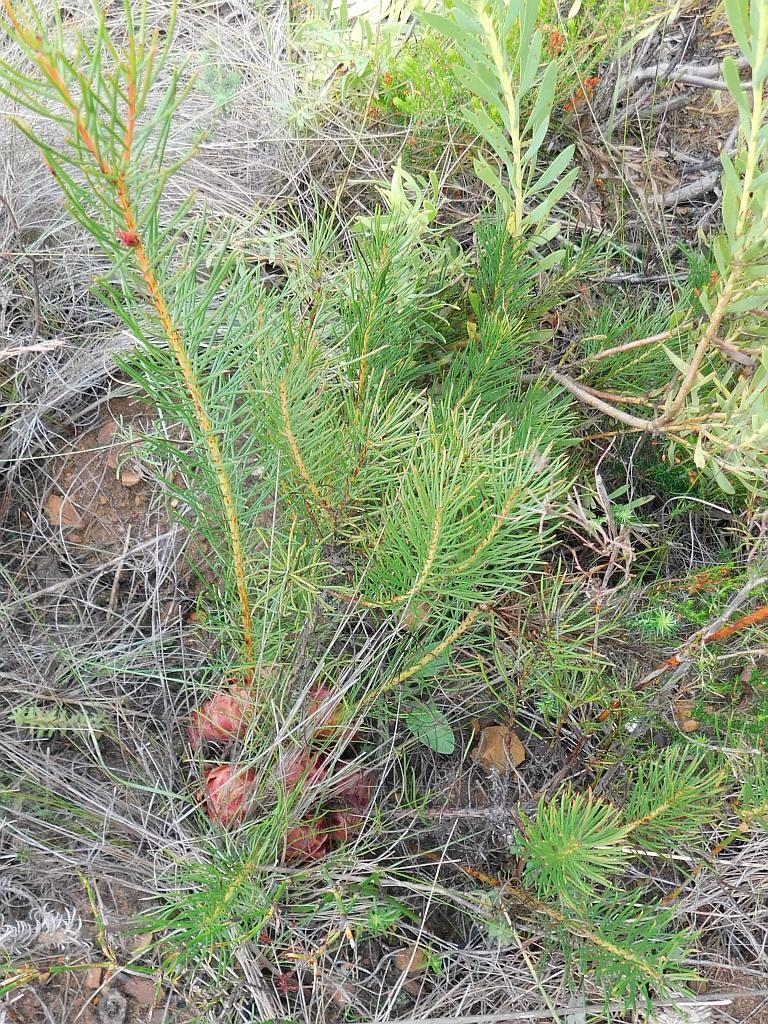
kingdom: Plantae
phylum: Tracheophyta
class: Magnoliopsida
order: Proteales
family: Proteaceae
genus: Protea
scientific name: Protea subulifolia
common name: Awl-leaf sugarbush
